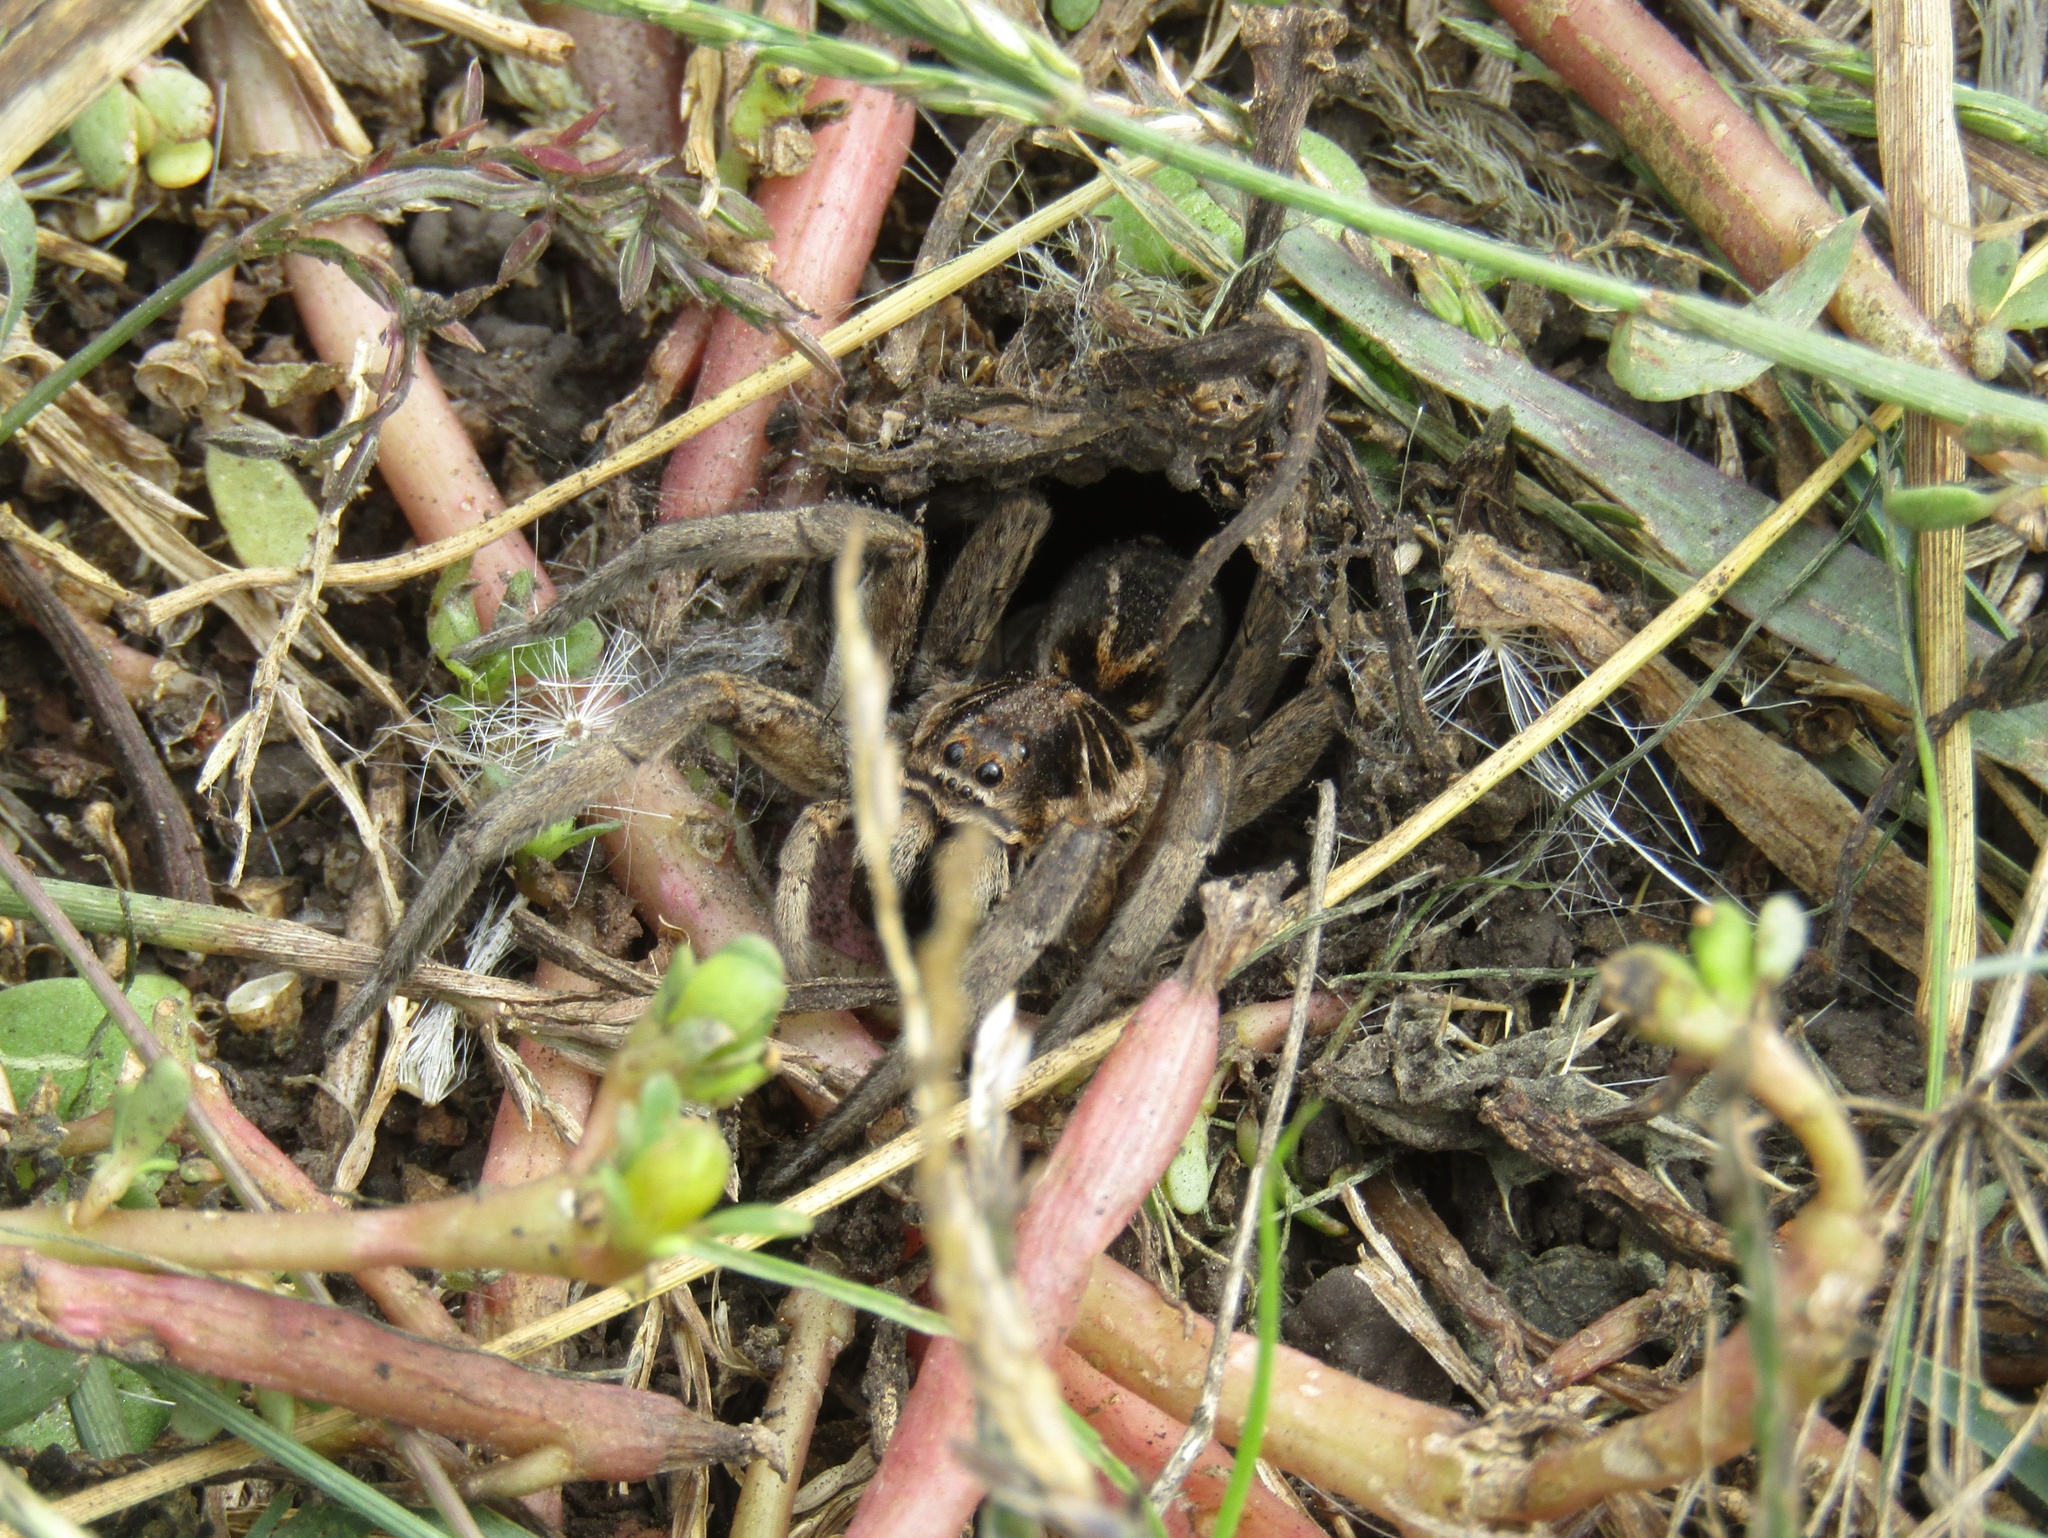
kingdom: Animalia
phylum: Arthropoda
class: Arachnida
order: Araneae
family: Lycosidae
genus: Lycosa
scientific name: Lycosa pampeana
